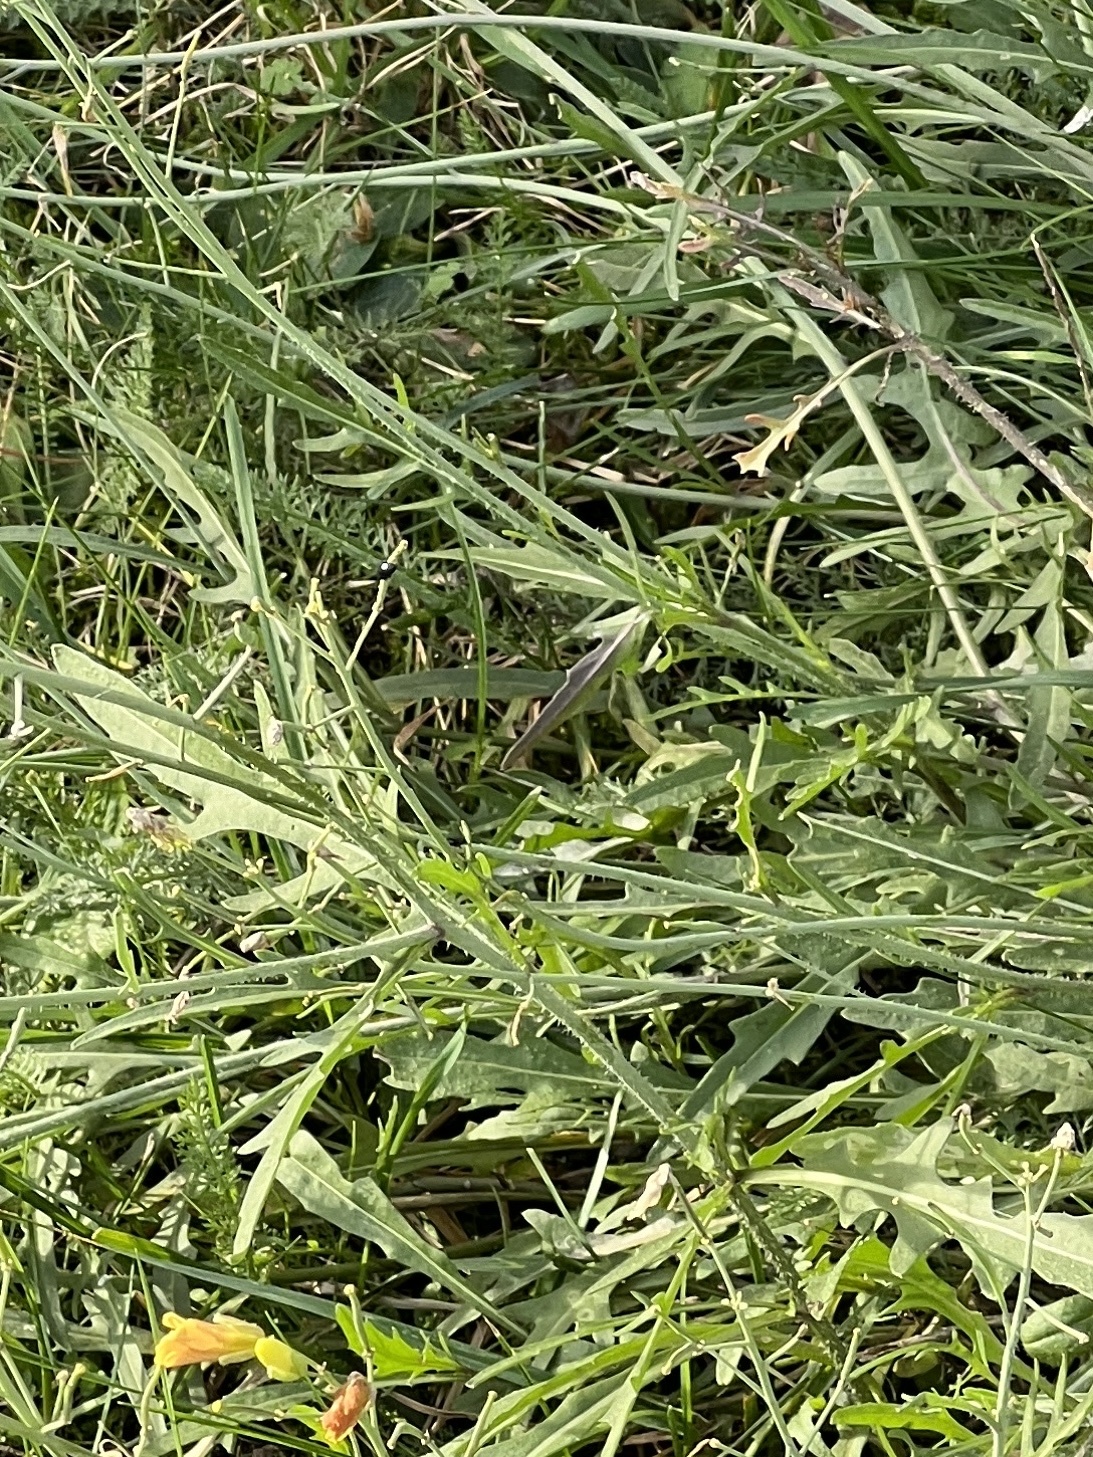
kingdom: Plantae
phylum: Tracheophyta
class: Magnoliopsida
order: Brassicales
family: Brassicaceae
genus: Diplotaxis
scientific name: Diplotaxis tenuifolia
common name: Perennial wall-rocket
